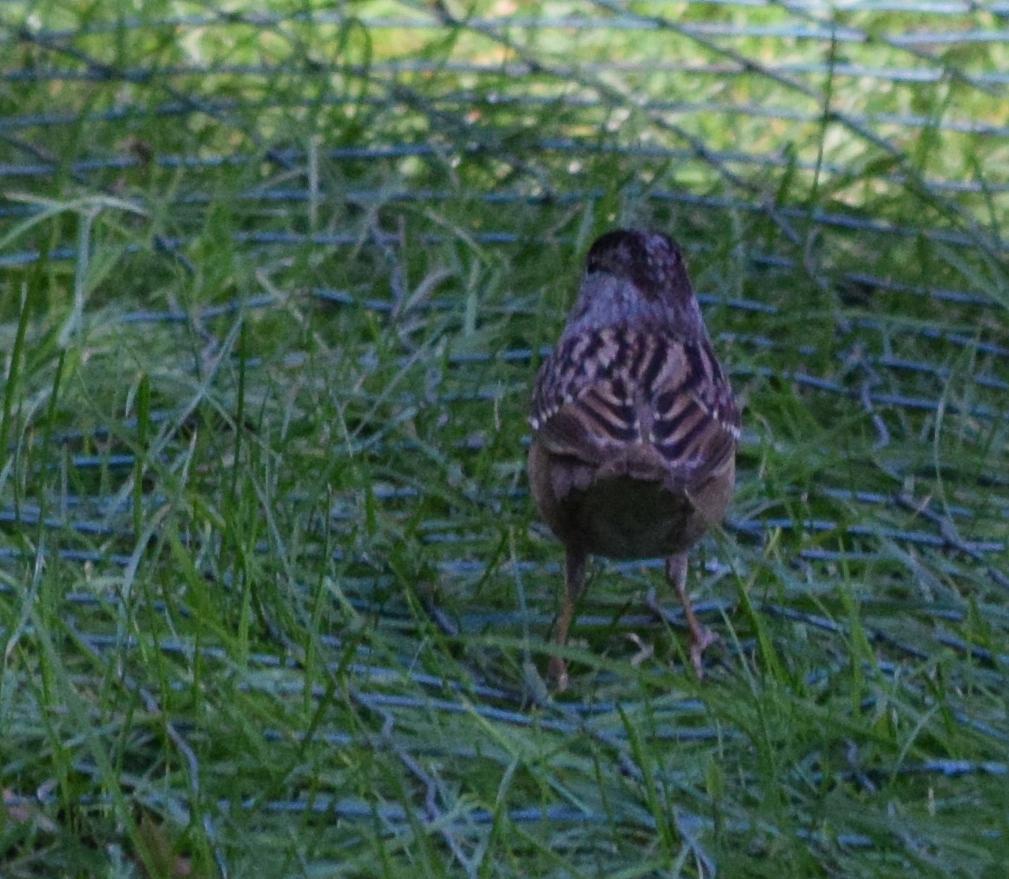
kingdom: Animalia
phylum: Chordata
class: Aves
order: Passeriformes
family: Passerellidae
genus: Zonotrichia
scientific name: Zonotrichia atricapilla
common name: Golden-crowned sparrow
